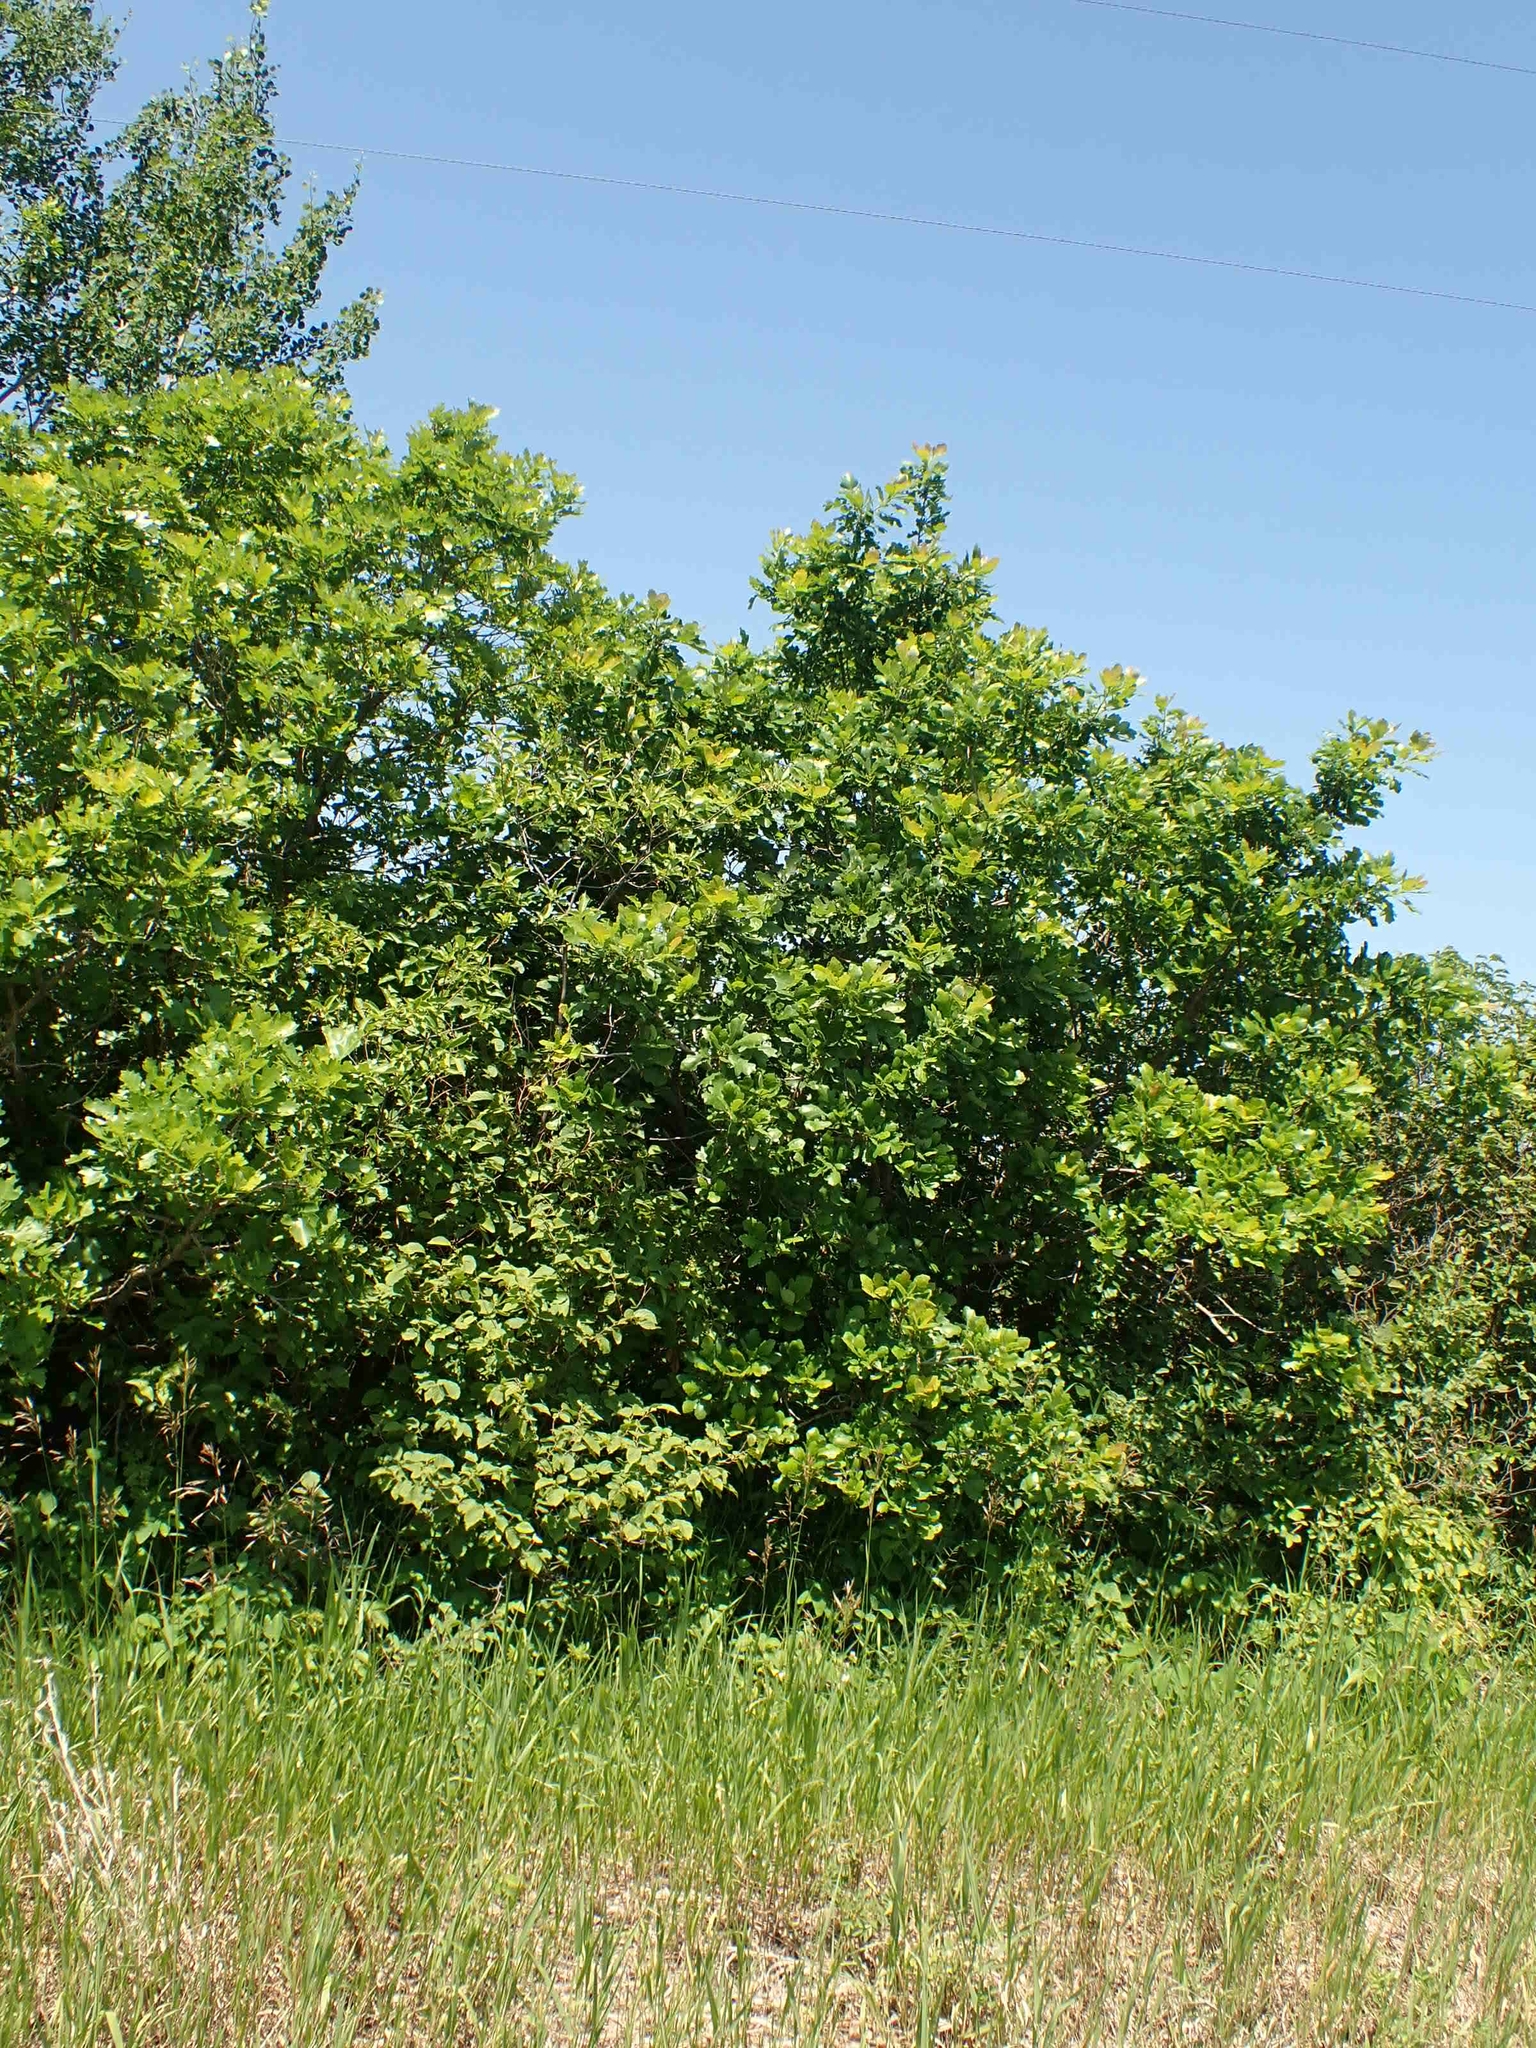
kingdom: Plantae
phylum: Tracheophyta
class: Magnoliopsida
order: Fagales
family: Fagaceae
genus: Quercus
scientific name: Quercus macrocarpa
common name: Bur oak
